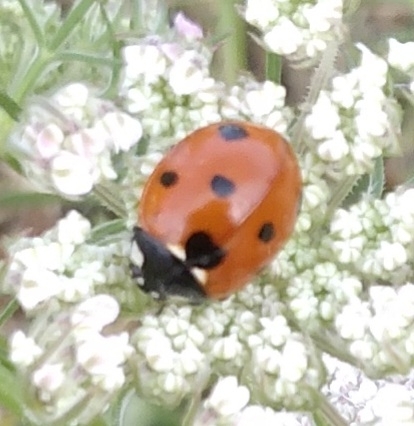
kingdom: Animalia
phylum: Arthropoda
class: Insecta
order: Coleoptera
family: Coccinellidae
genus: Coccinella
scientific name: Coccinella septempunctata
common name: Sevenspotted lady beetle
